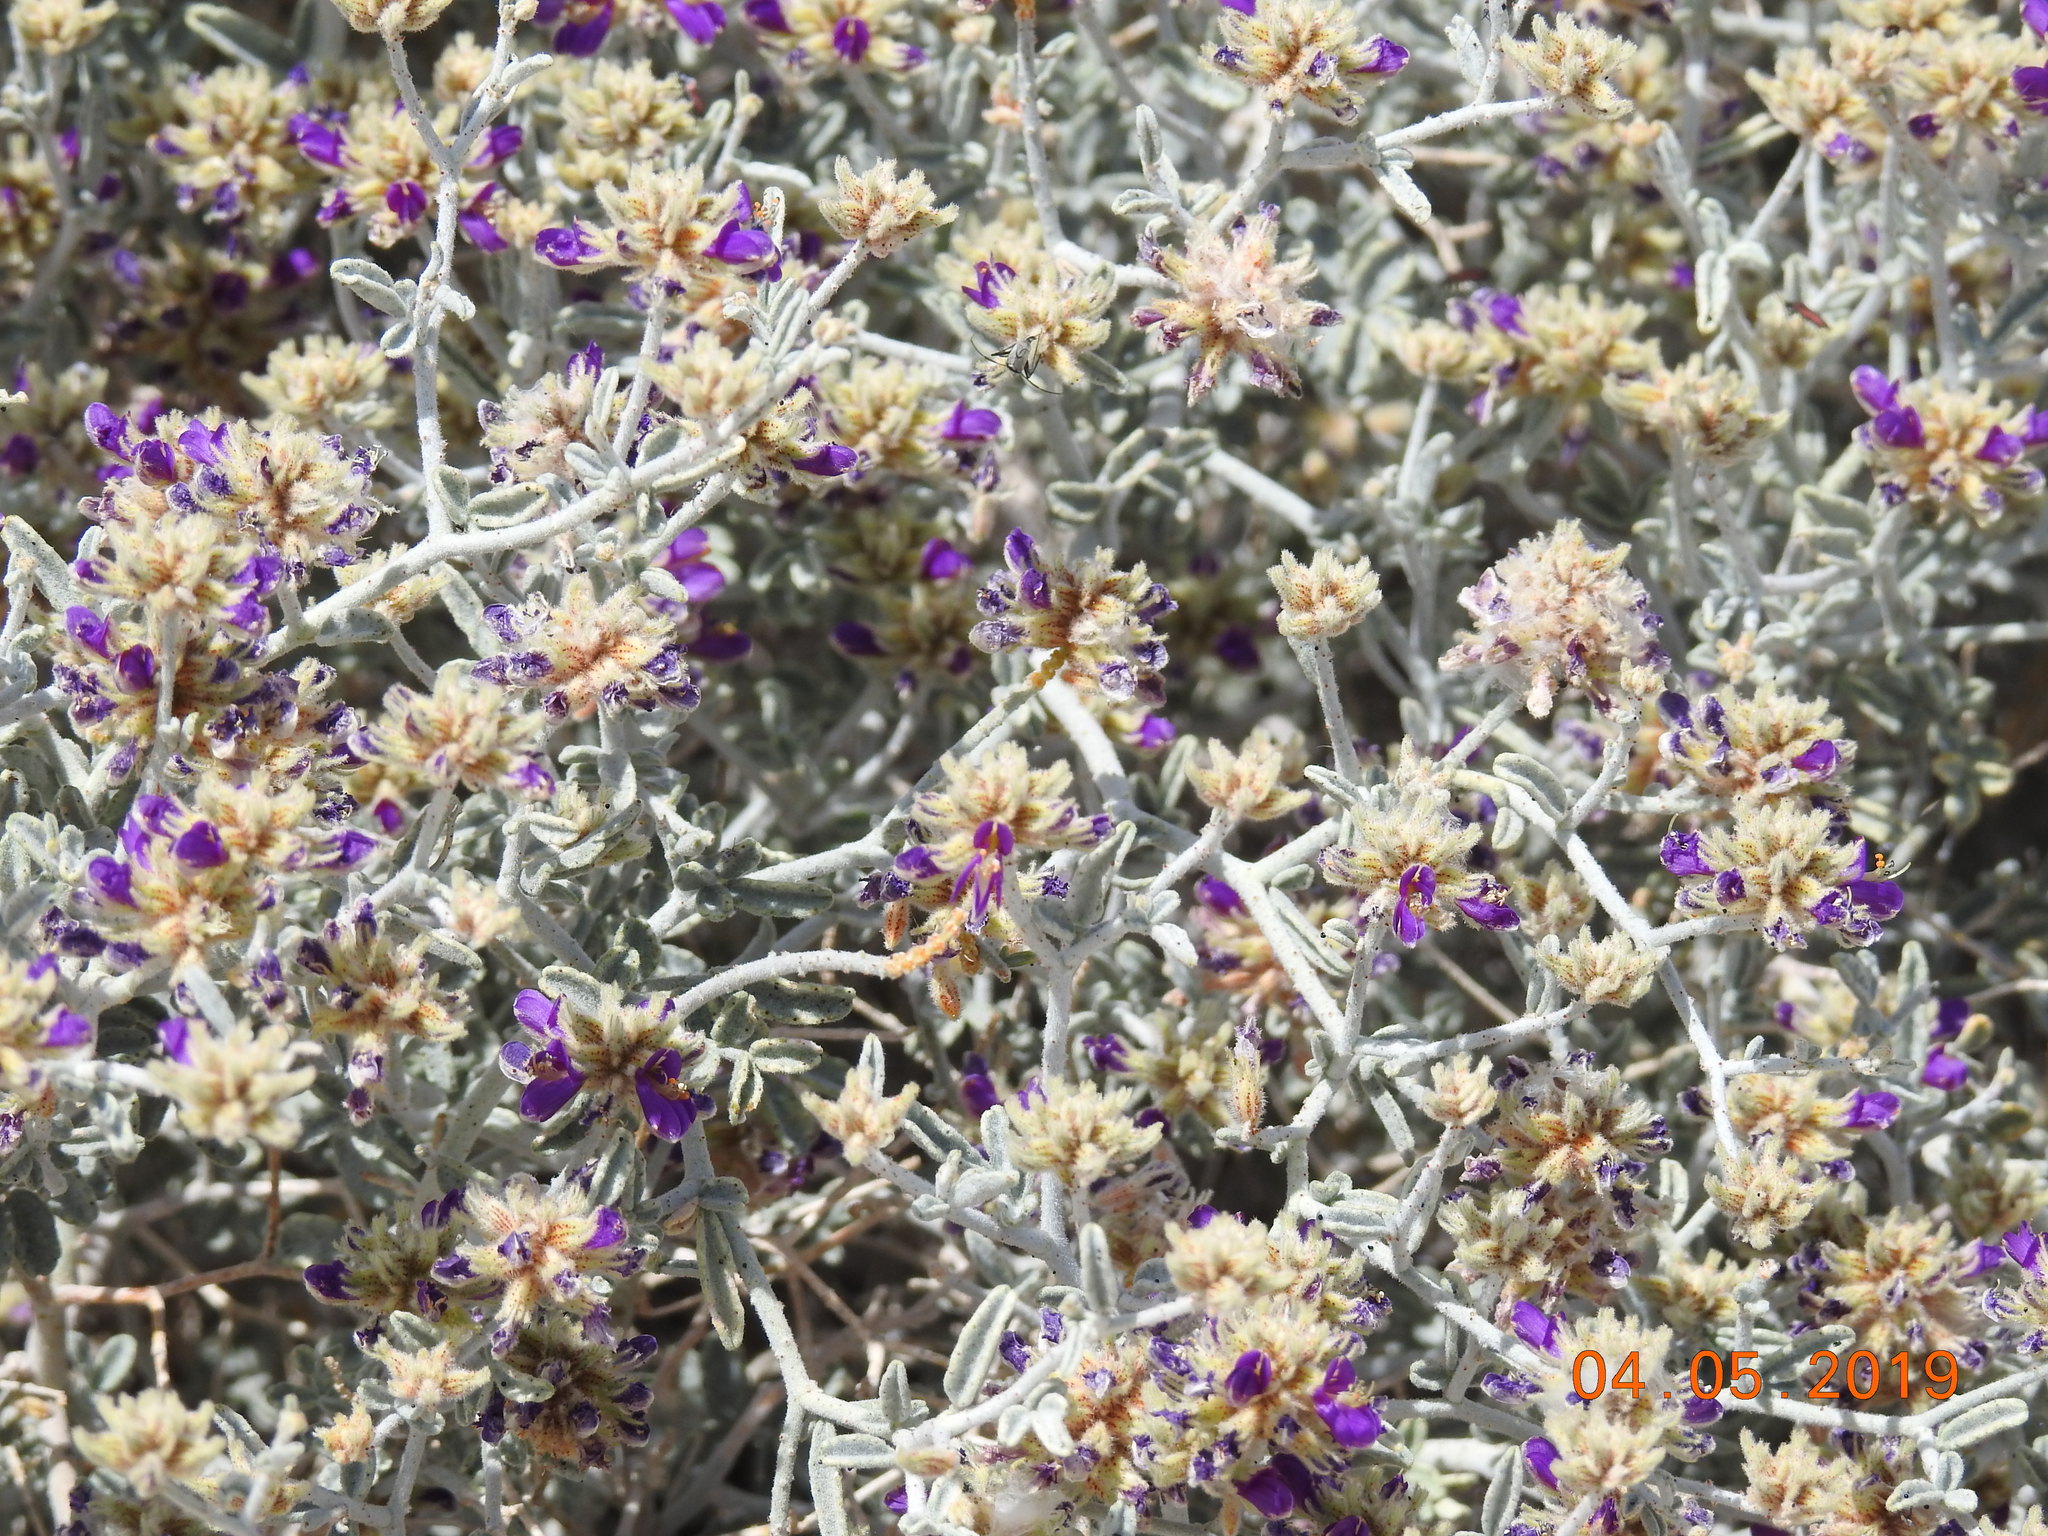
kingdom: Plantae
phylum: Tracheophyta
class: Magnoliopsida
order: Fabales
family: Fabaceae
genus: Psorothamnus
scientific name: Psorothamnus emoryi
